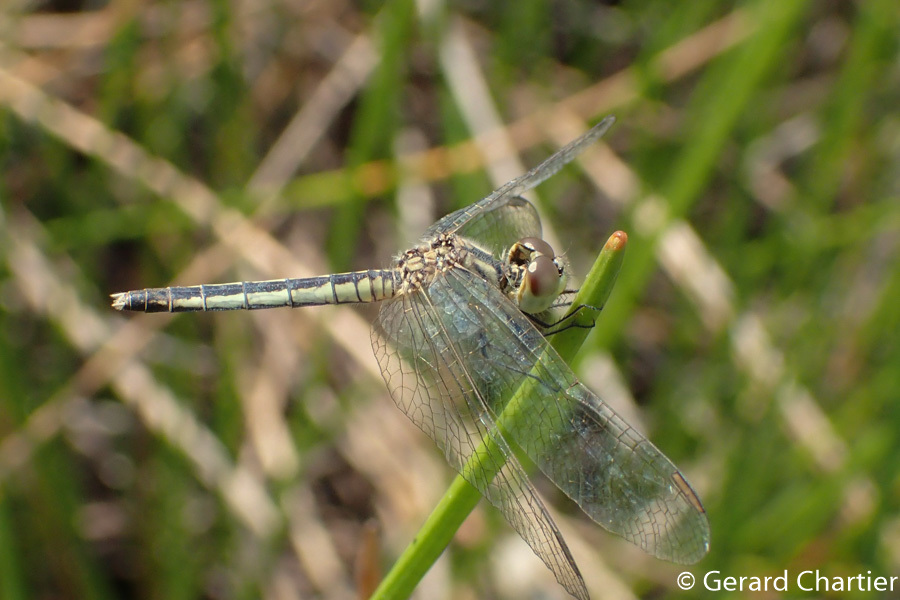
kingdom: Animalia
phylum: Arthropoda
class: Insecta
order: Odonata
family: Libellulidae
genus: Diplacodes
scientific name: Diplacodes nebulosa
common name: Black-tipped percher
